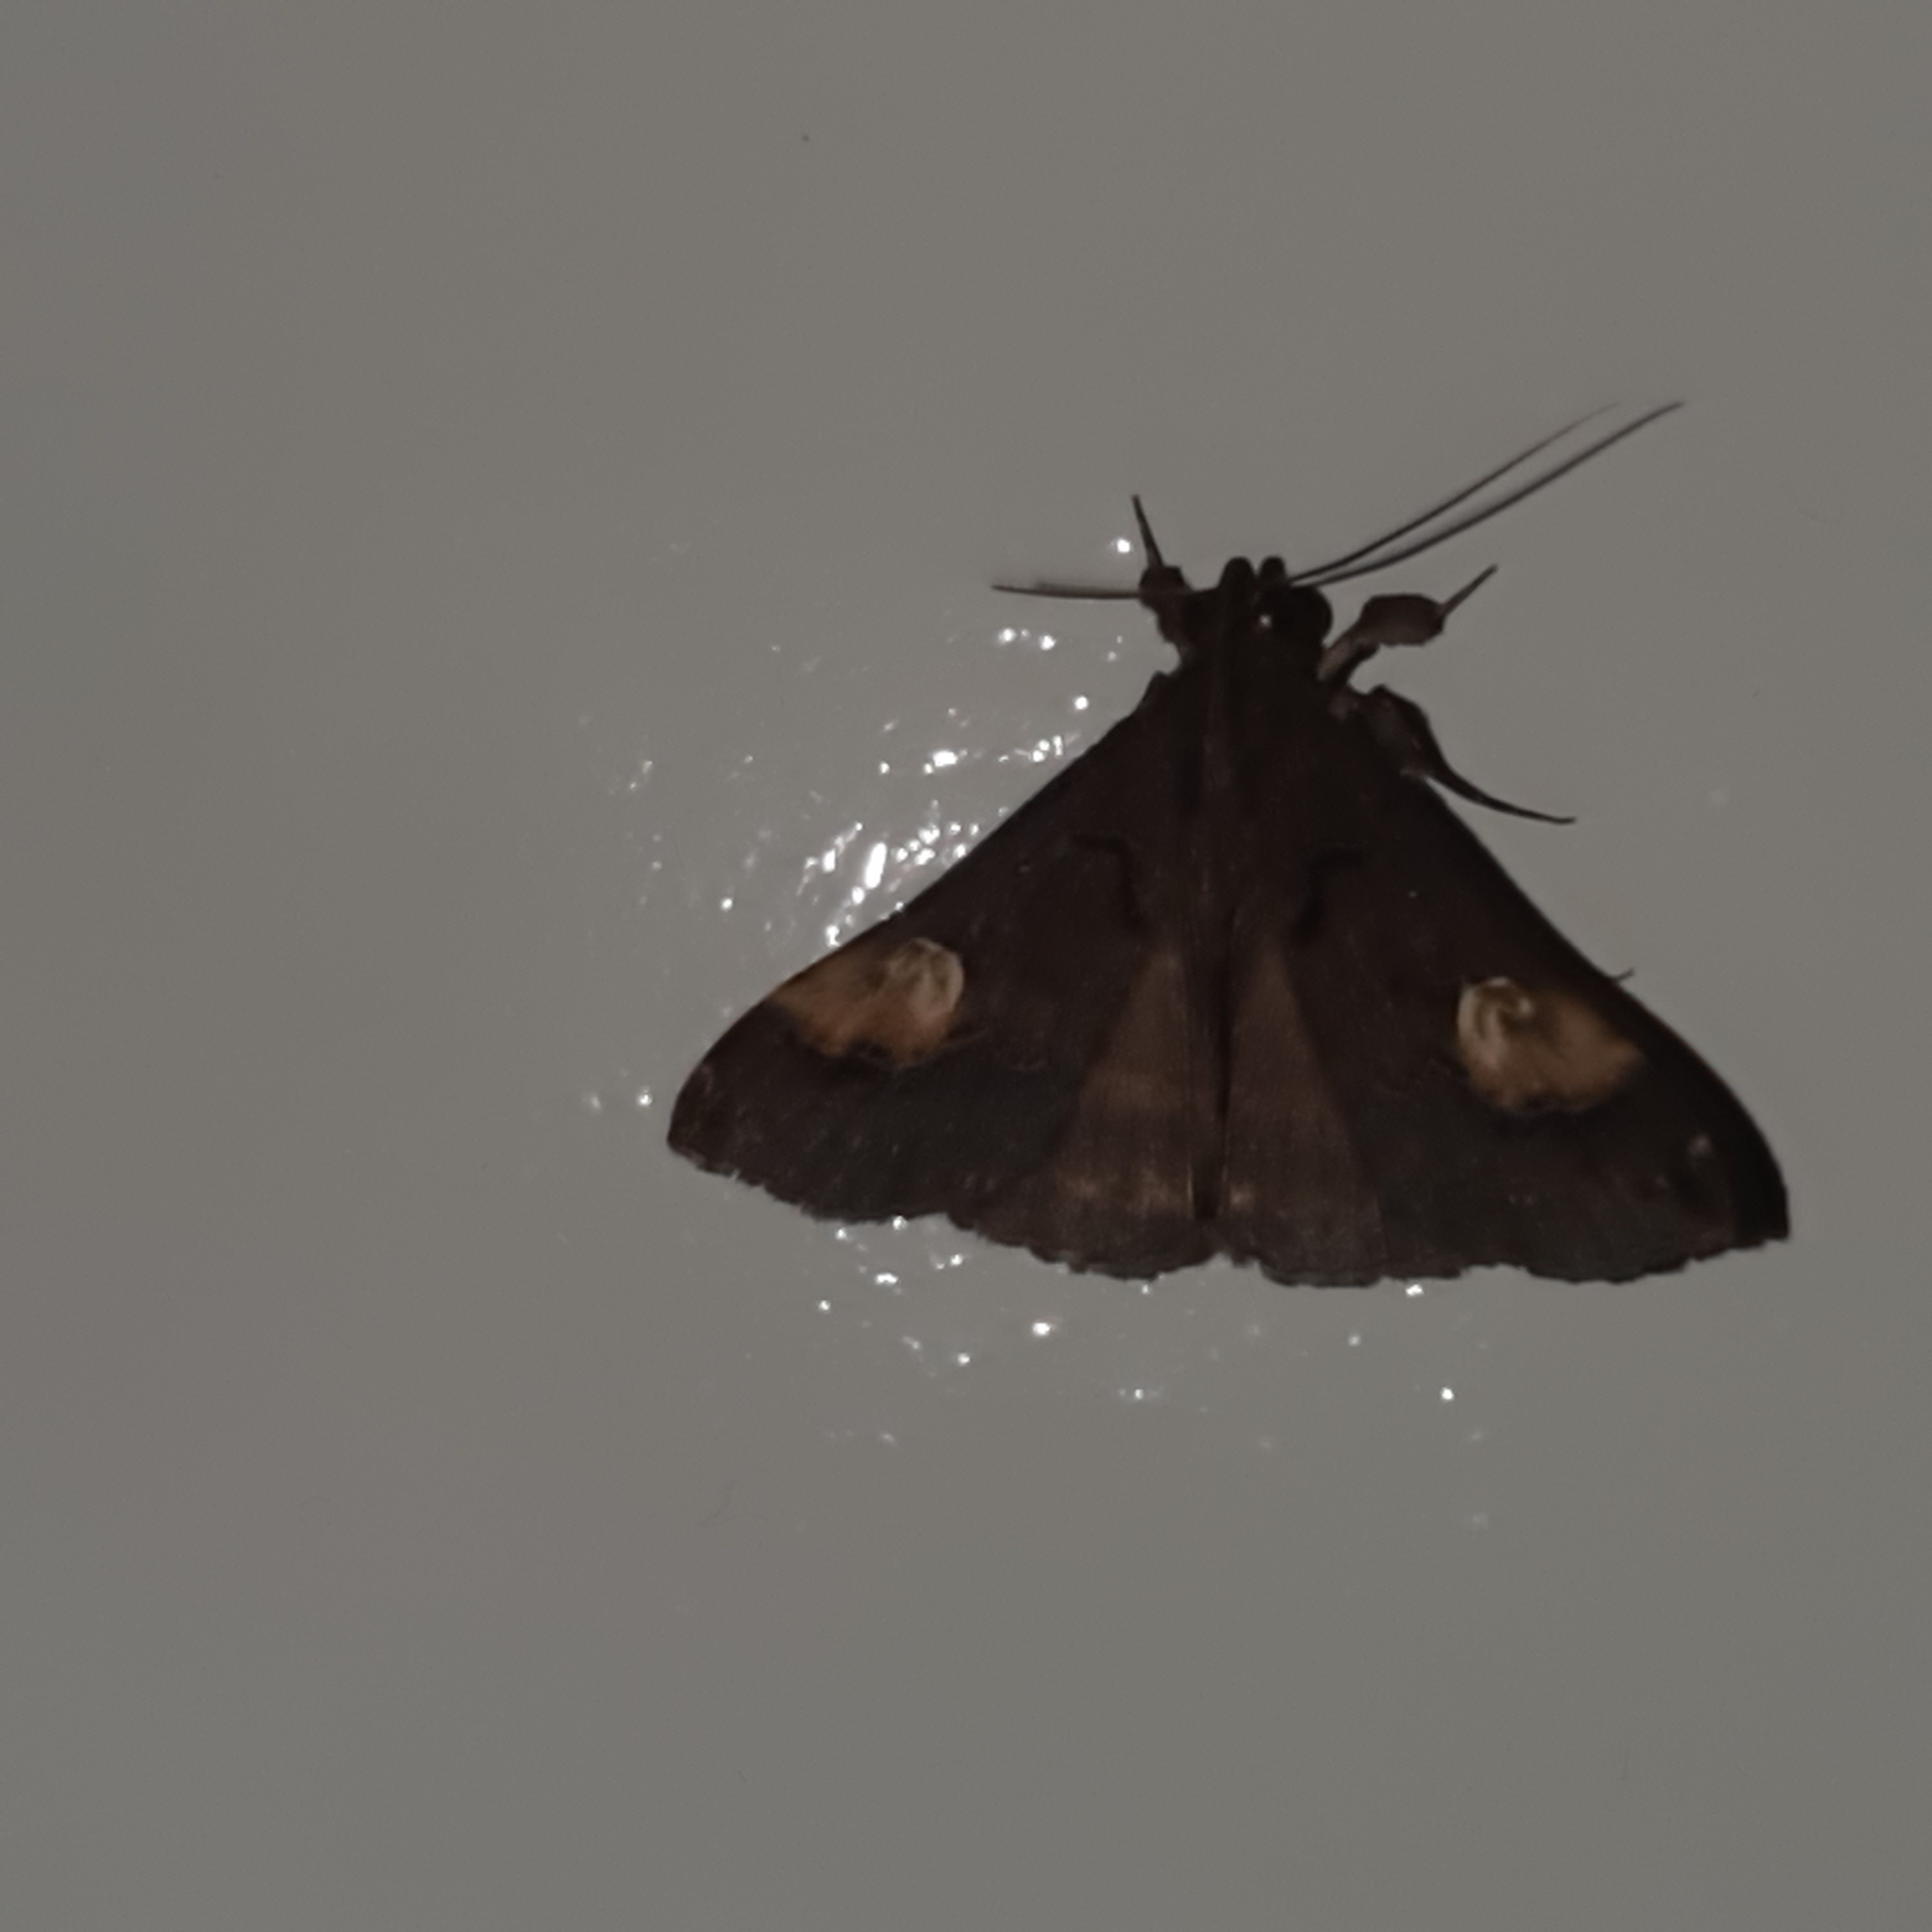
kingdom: Animalia
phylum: Arthropoda
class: Insecta
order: Lepidoptera
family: Erebidae
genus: Scopifera
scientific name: Scopifera lycagusalis
